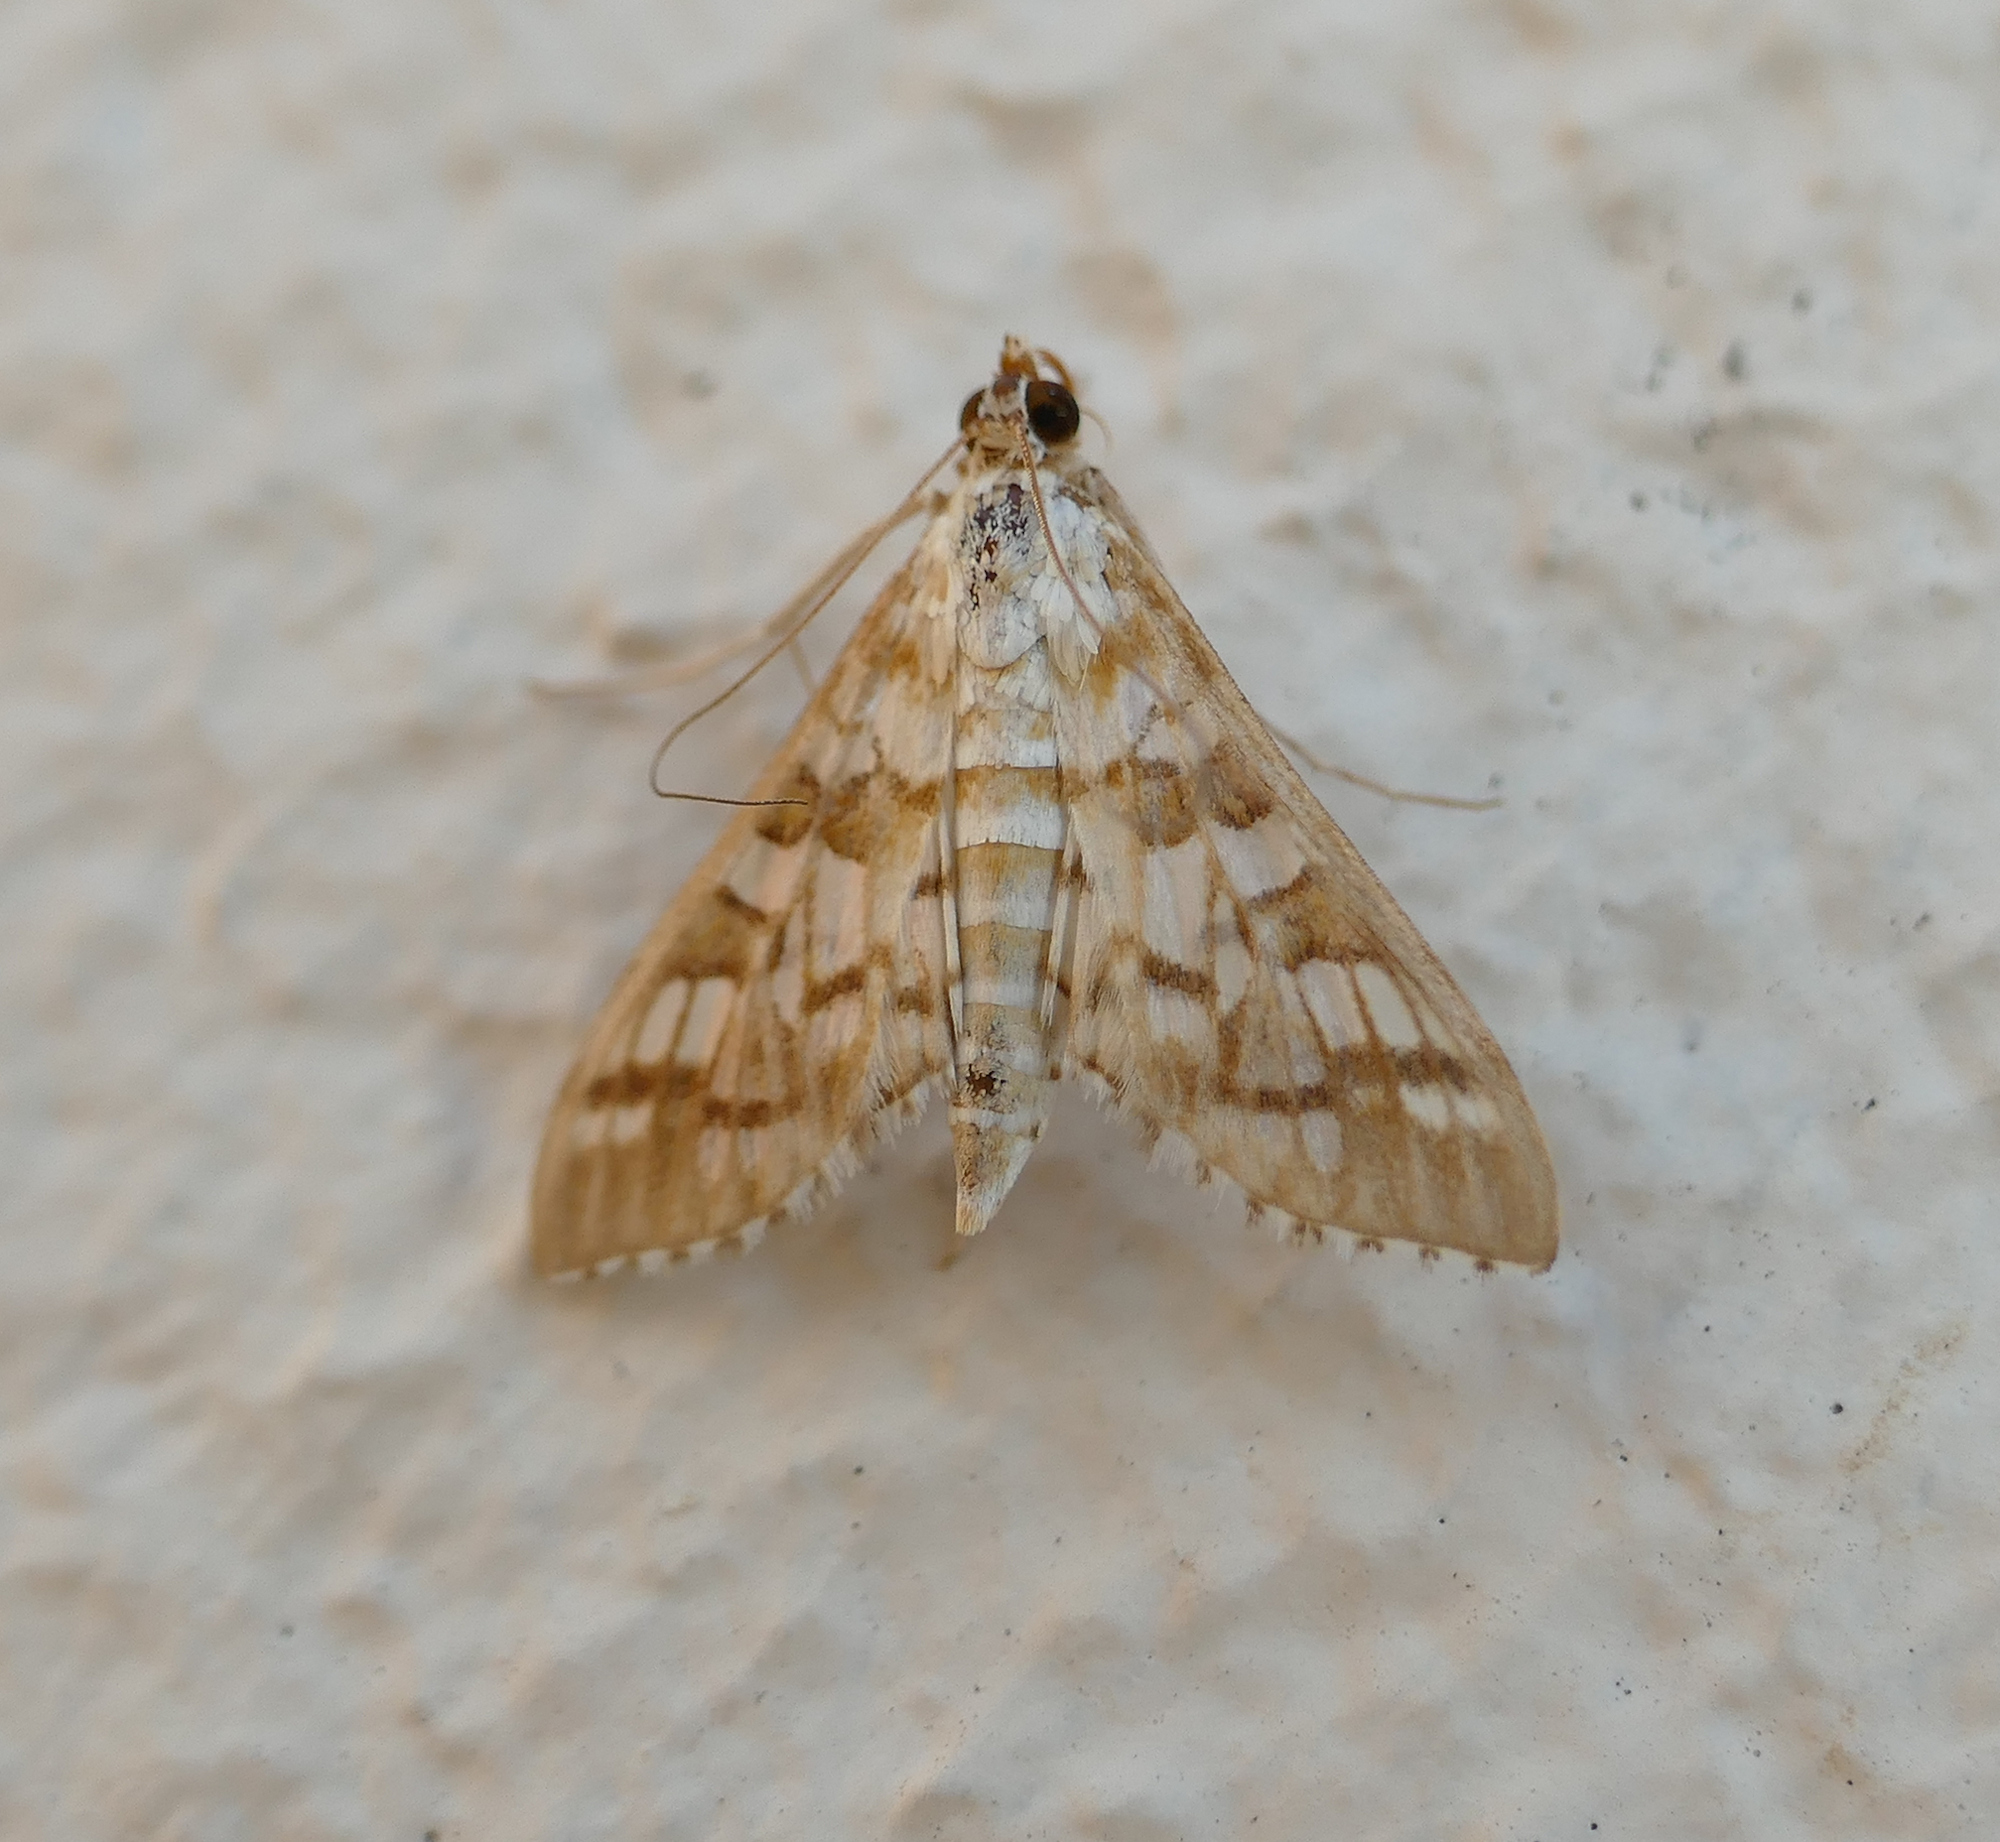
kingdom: Animalia
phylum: Arthropoda
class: Insecta
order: Lepidoptera
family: Crambidae
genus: Epipagis
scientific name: Epipagis fenestralis
